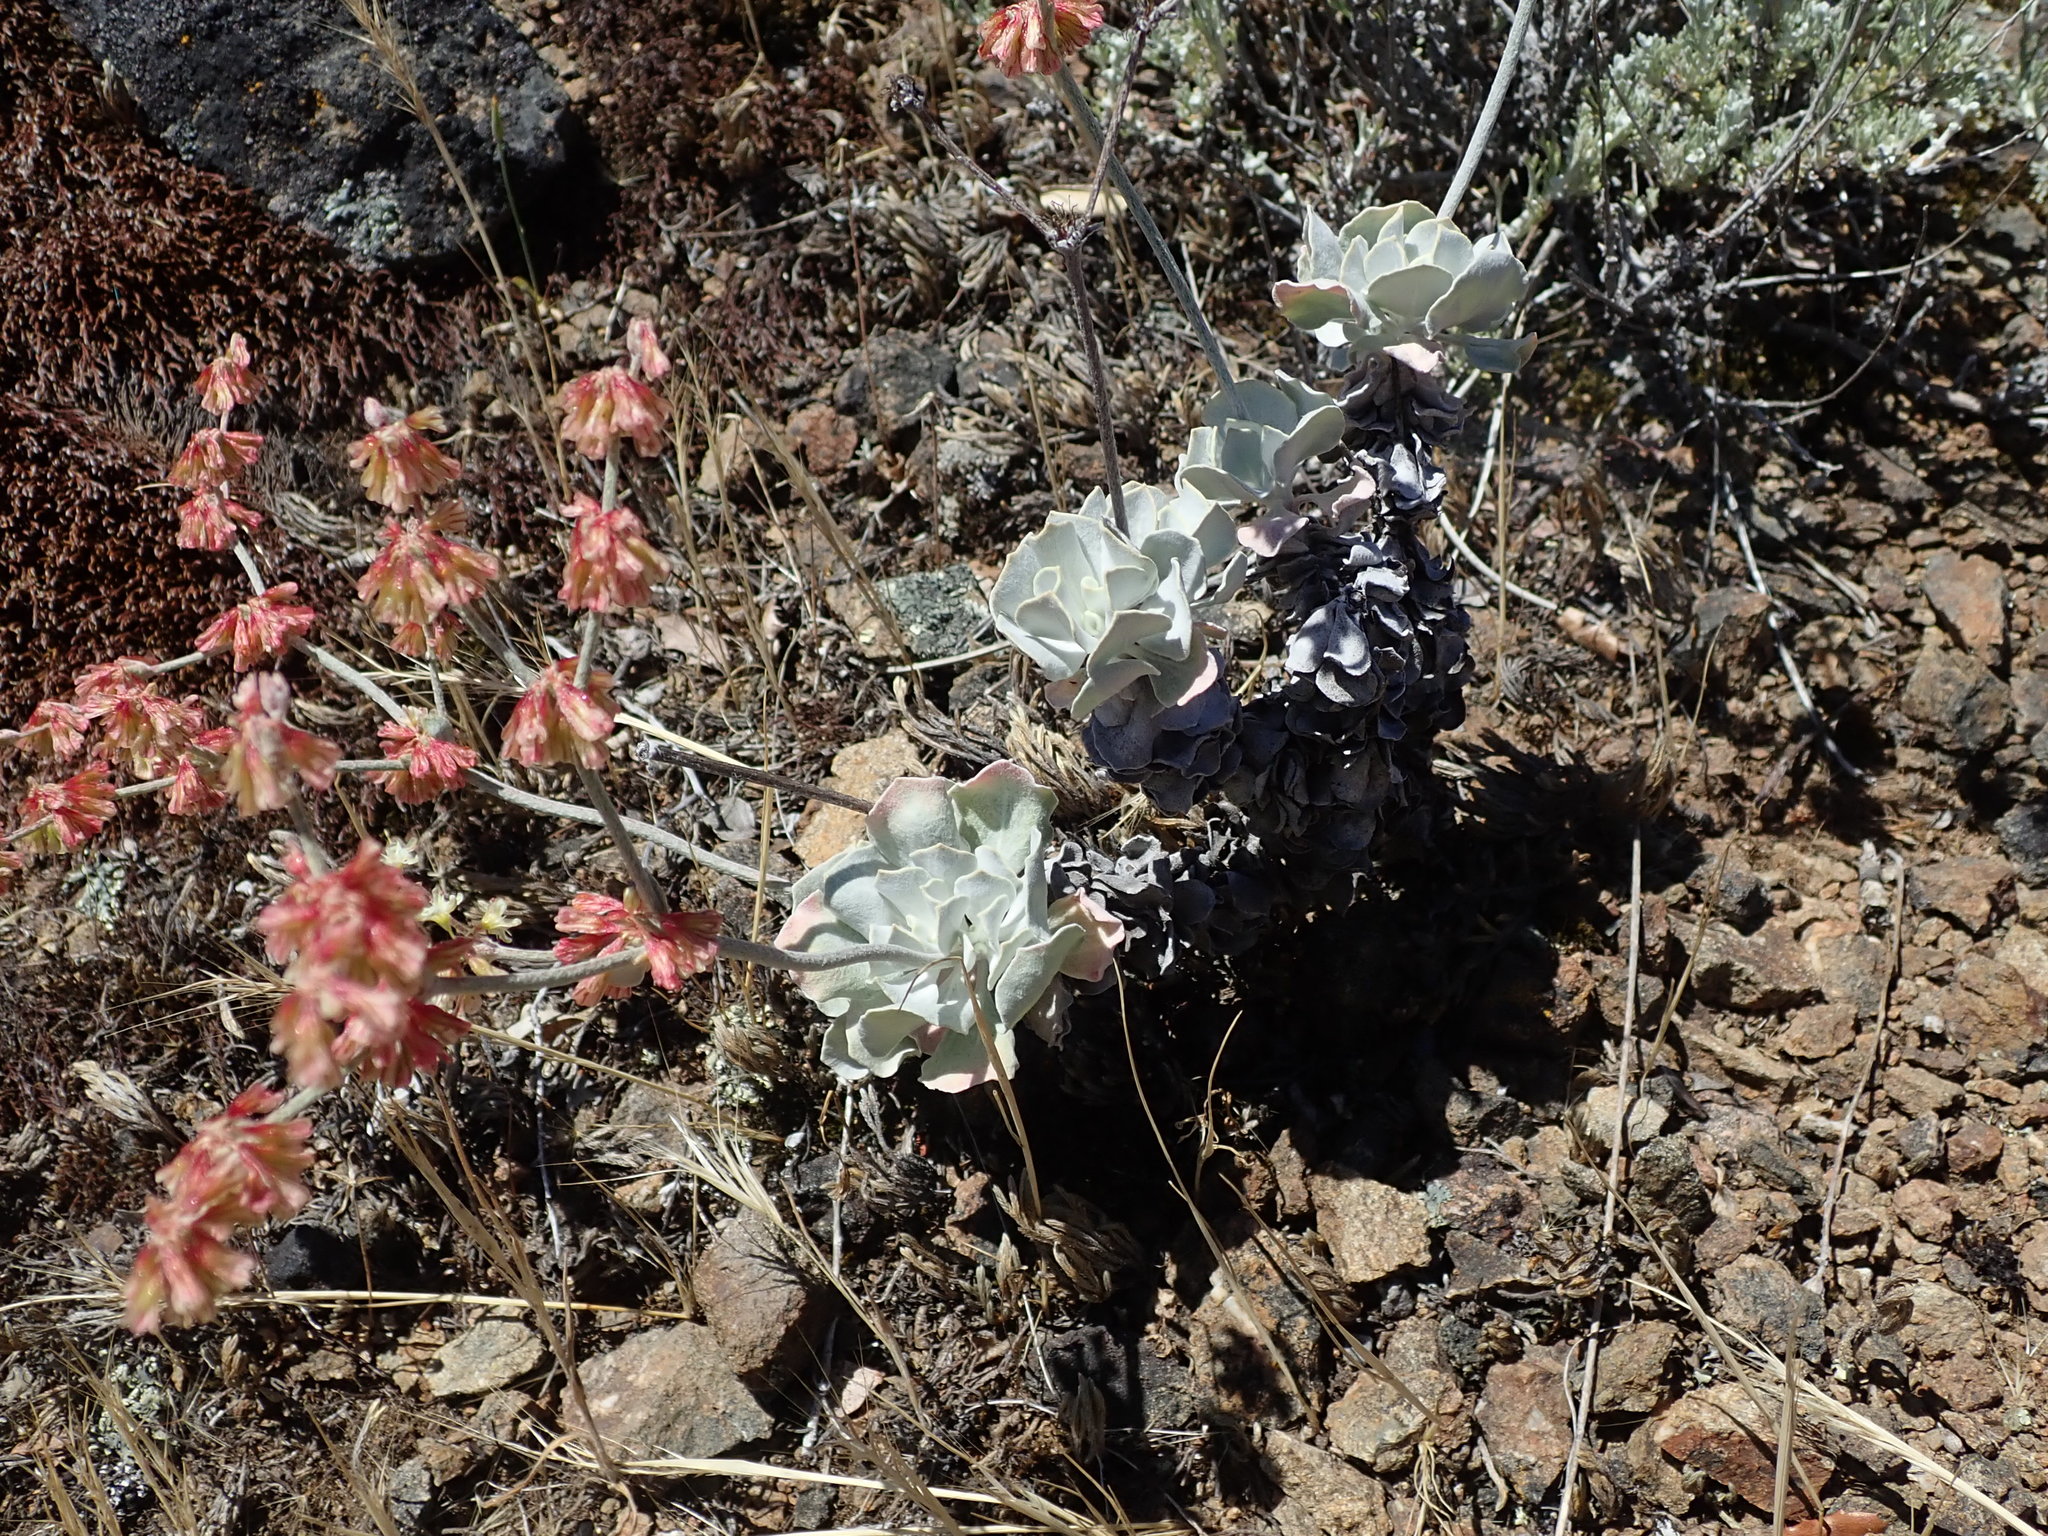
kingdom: Plantae
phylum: Tracheophyta
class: Magnoliopsida
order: Caryophyllales
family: Polygonaceae
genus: Eriogonum
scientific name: Eriogonum saxatile
